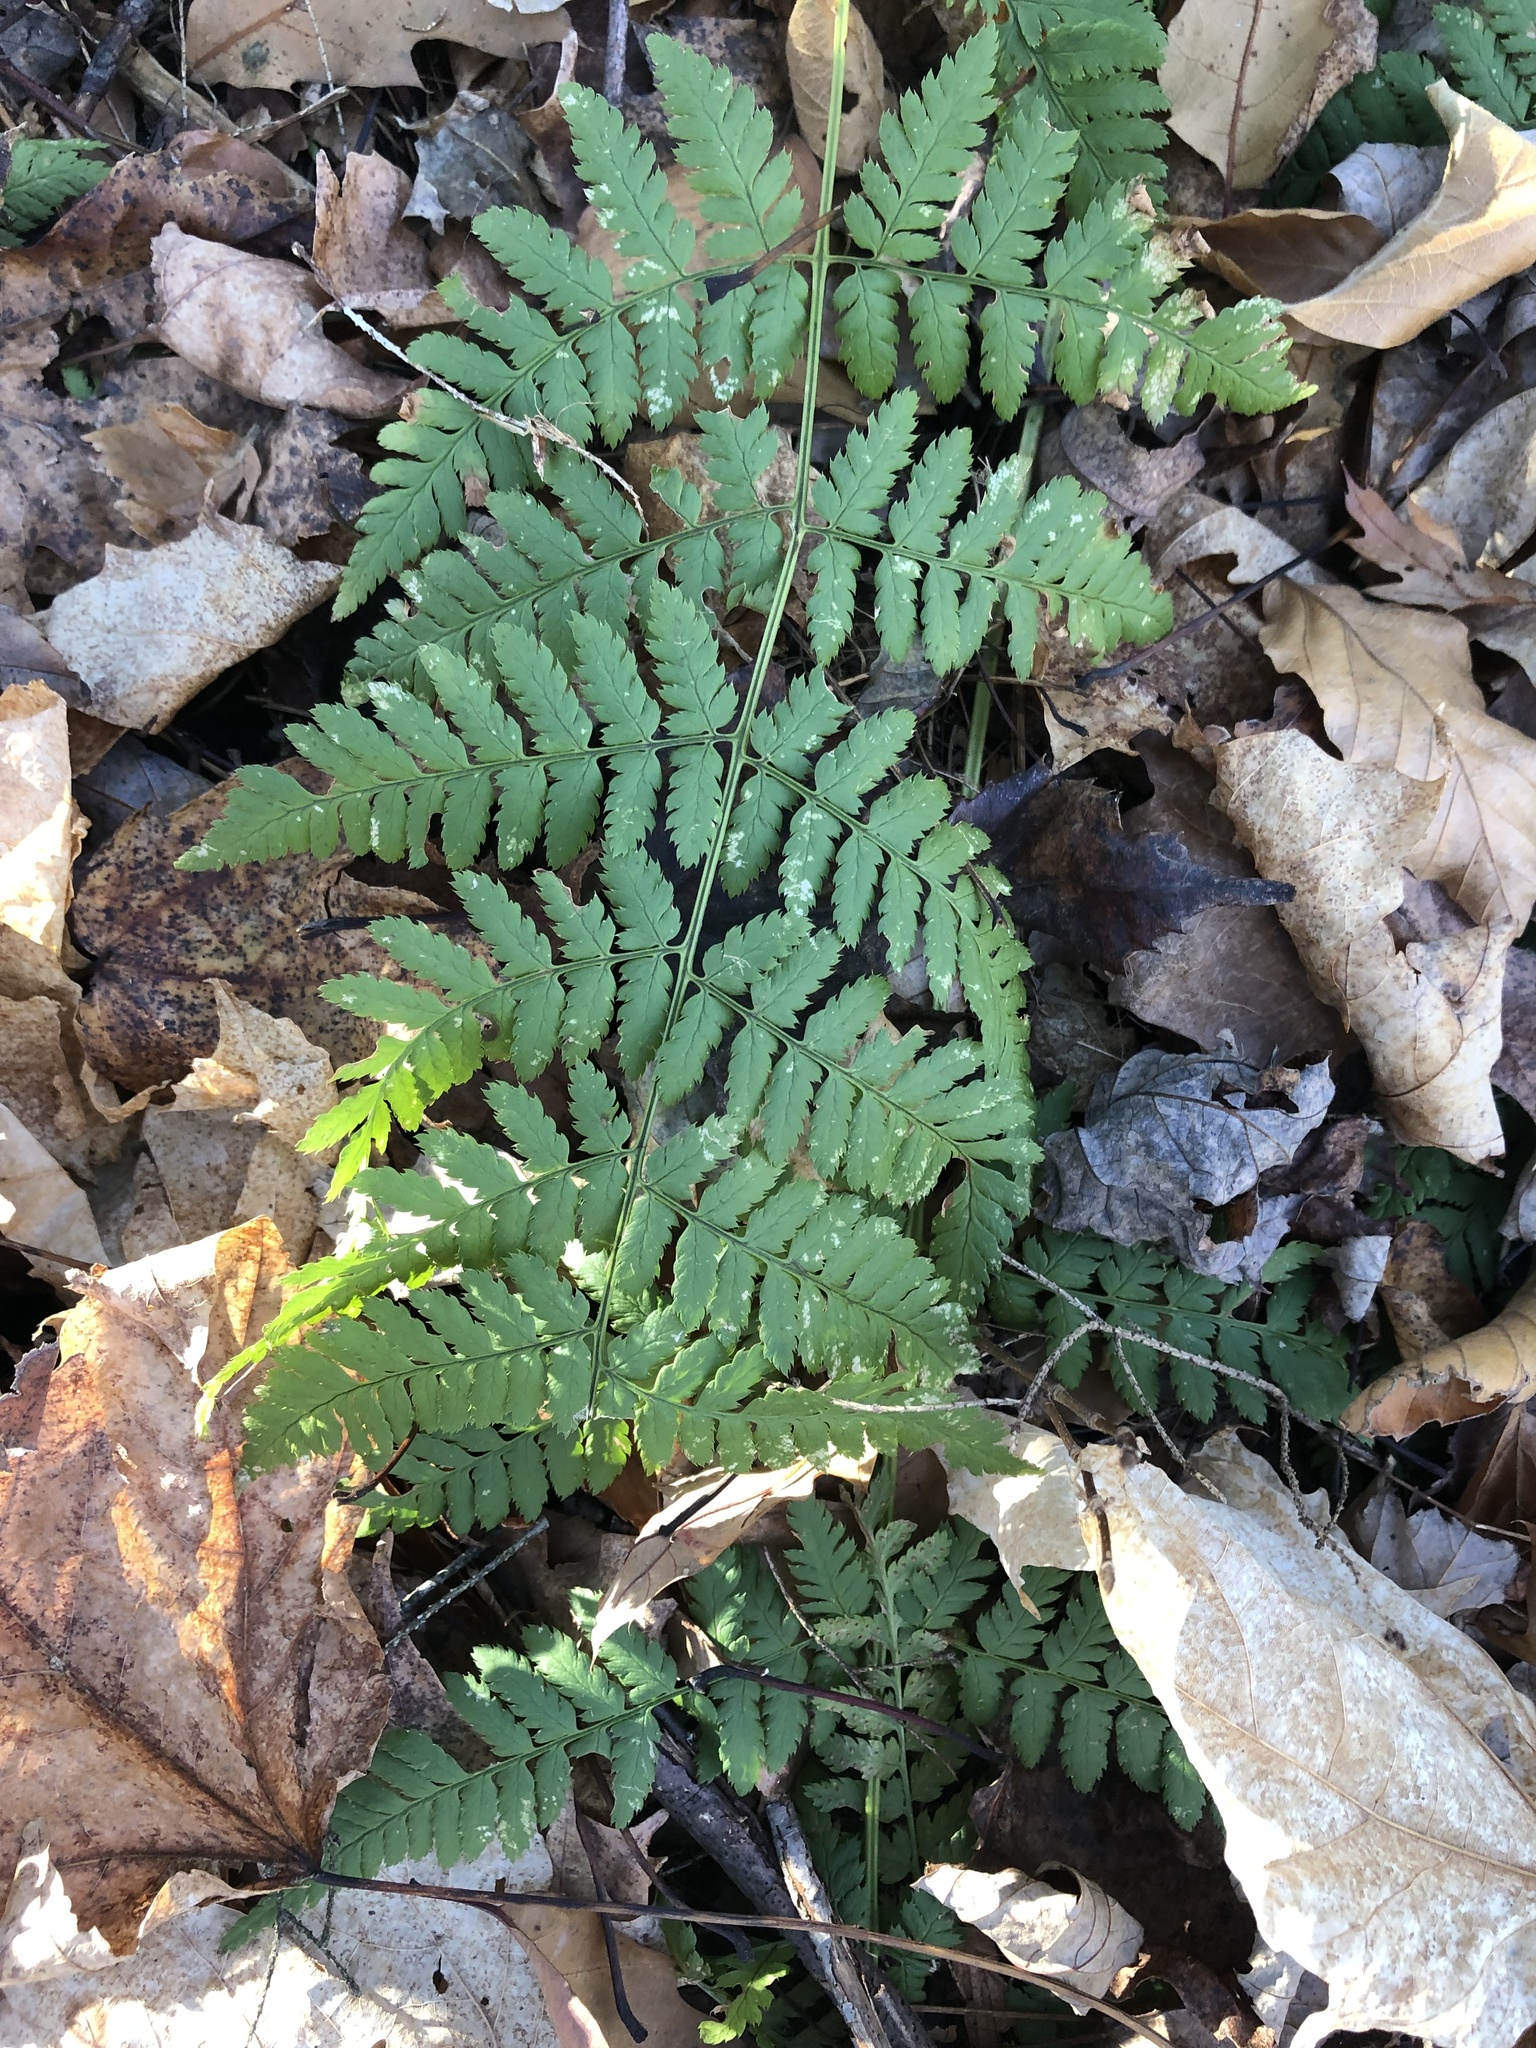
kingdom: Plantae
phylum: Tracheophyta
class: Polypodiopsida
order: Polypodiales
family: Dryopteridaceae
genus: Dryopteris
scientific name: Dryopteris intermedia
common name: Evergreen wood fern
